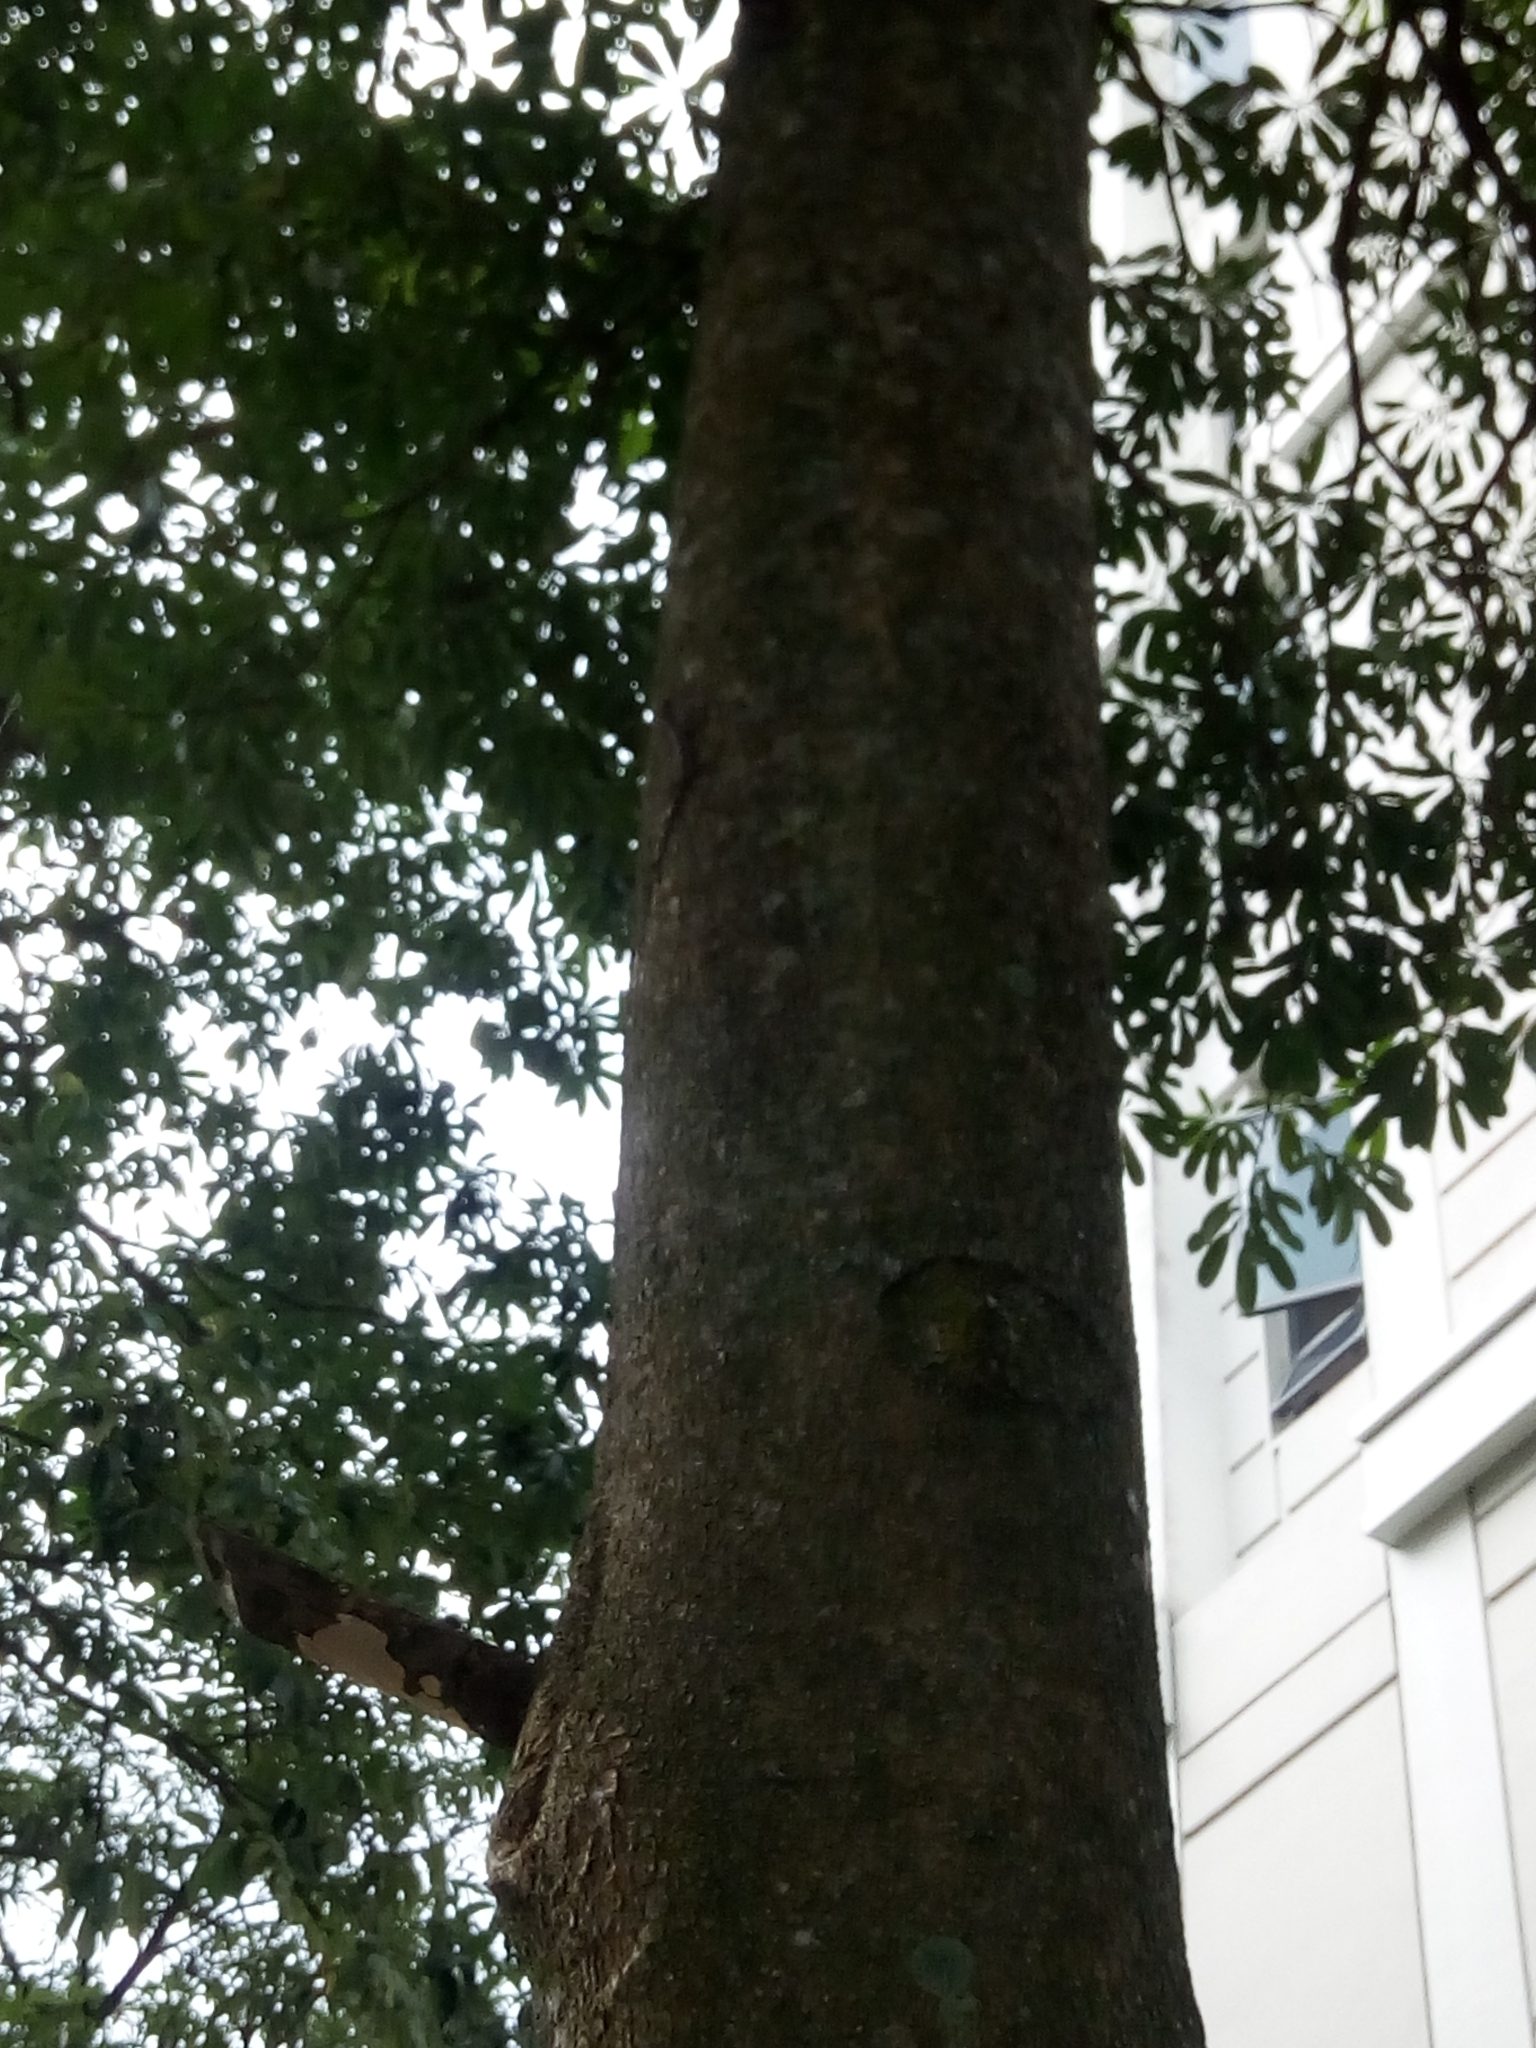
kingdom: Animalia
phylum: Chordata
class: Squamata
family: Agamidae
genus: Draco
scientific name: Draco sumatranus
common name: Common gliding lizard
